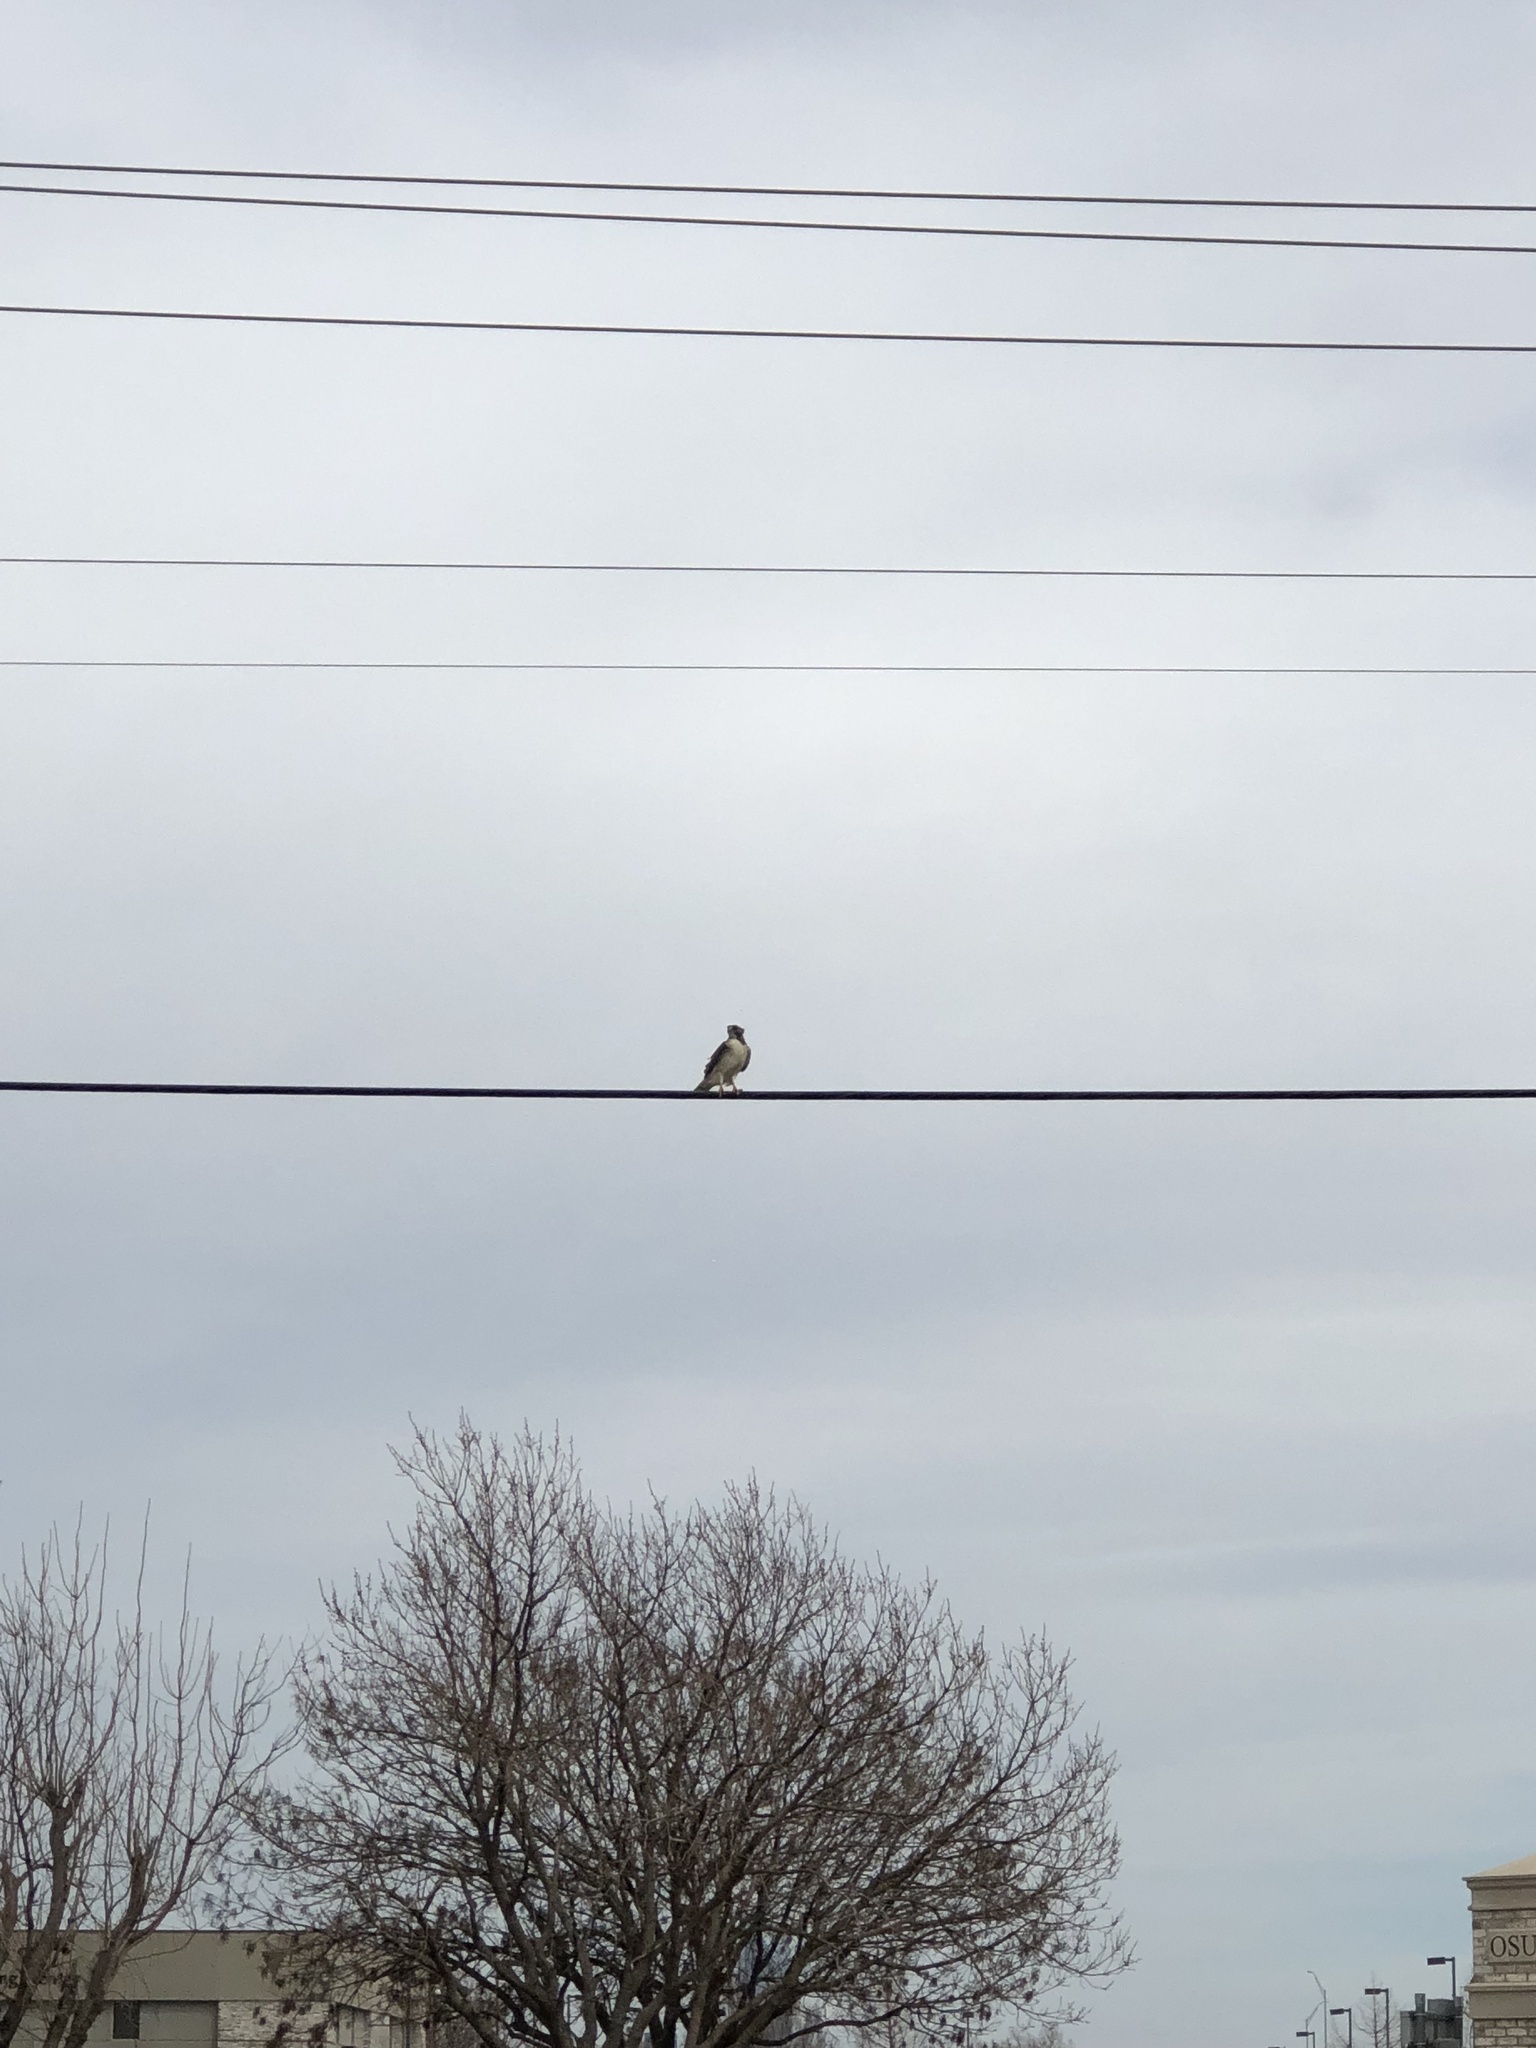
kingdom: Animalia
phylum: Chordata
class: Aves
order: Accipitriformes
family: Accipitridae
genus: Buteo
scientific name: Buteo jamaicensis
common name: Red-tailed hawk
